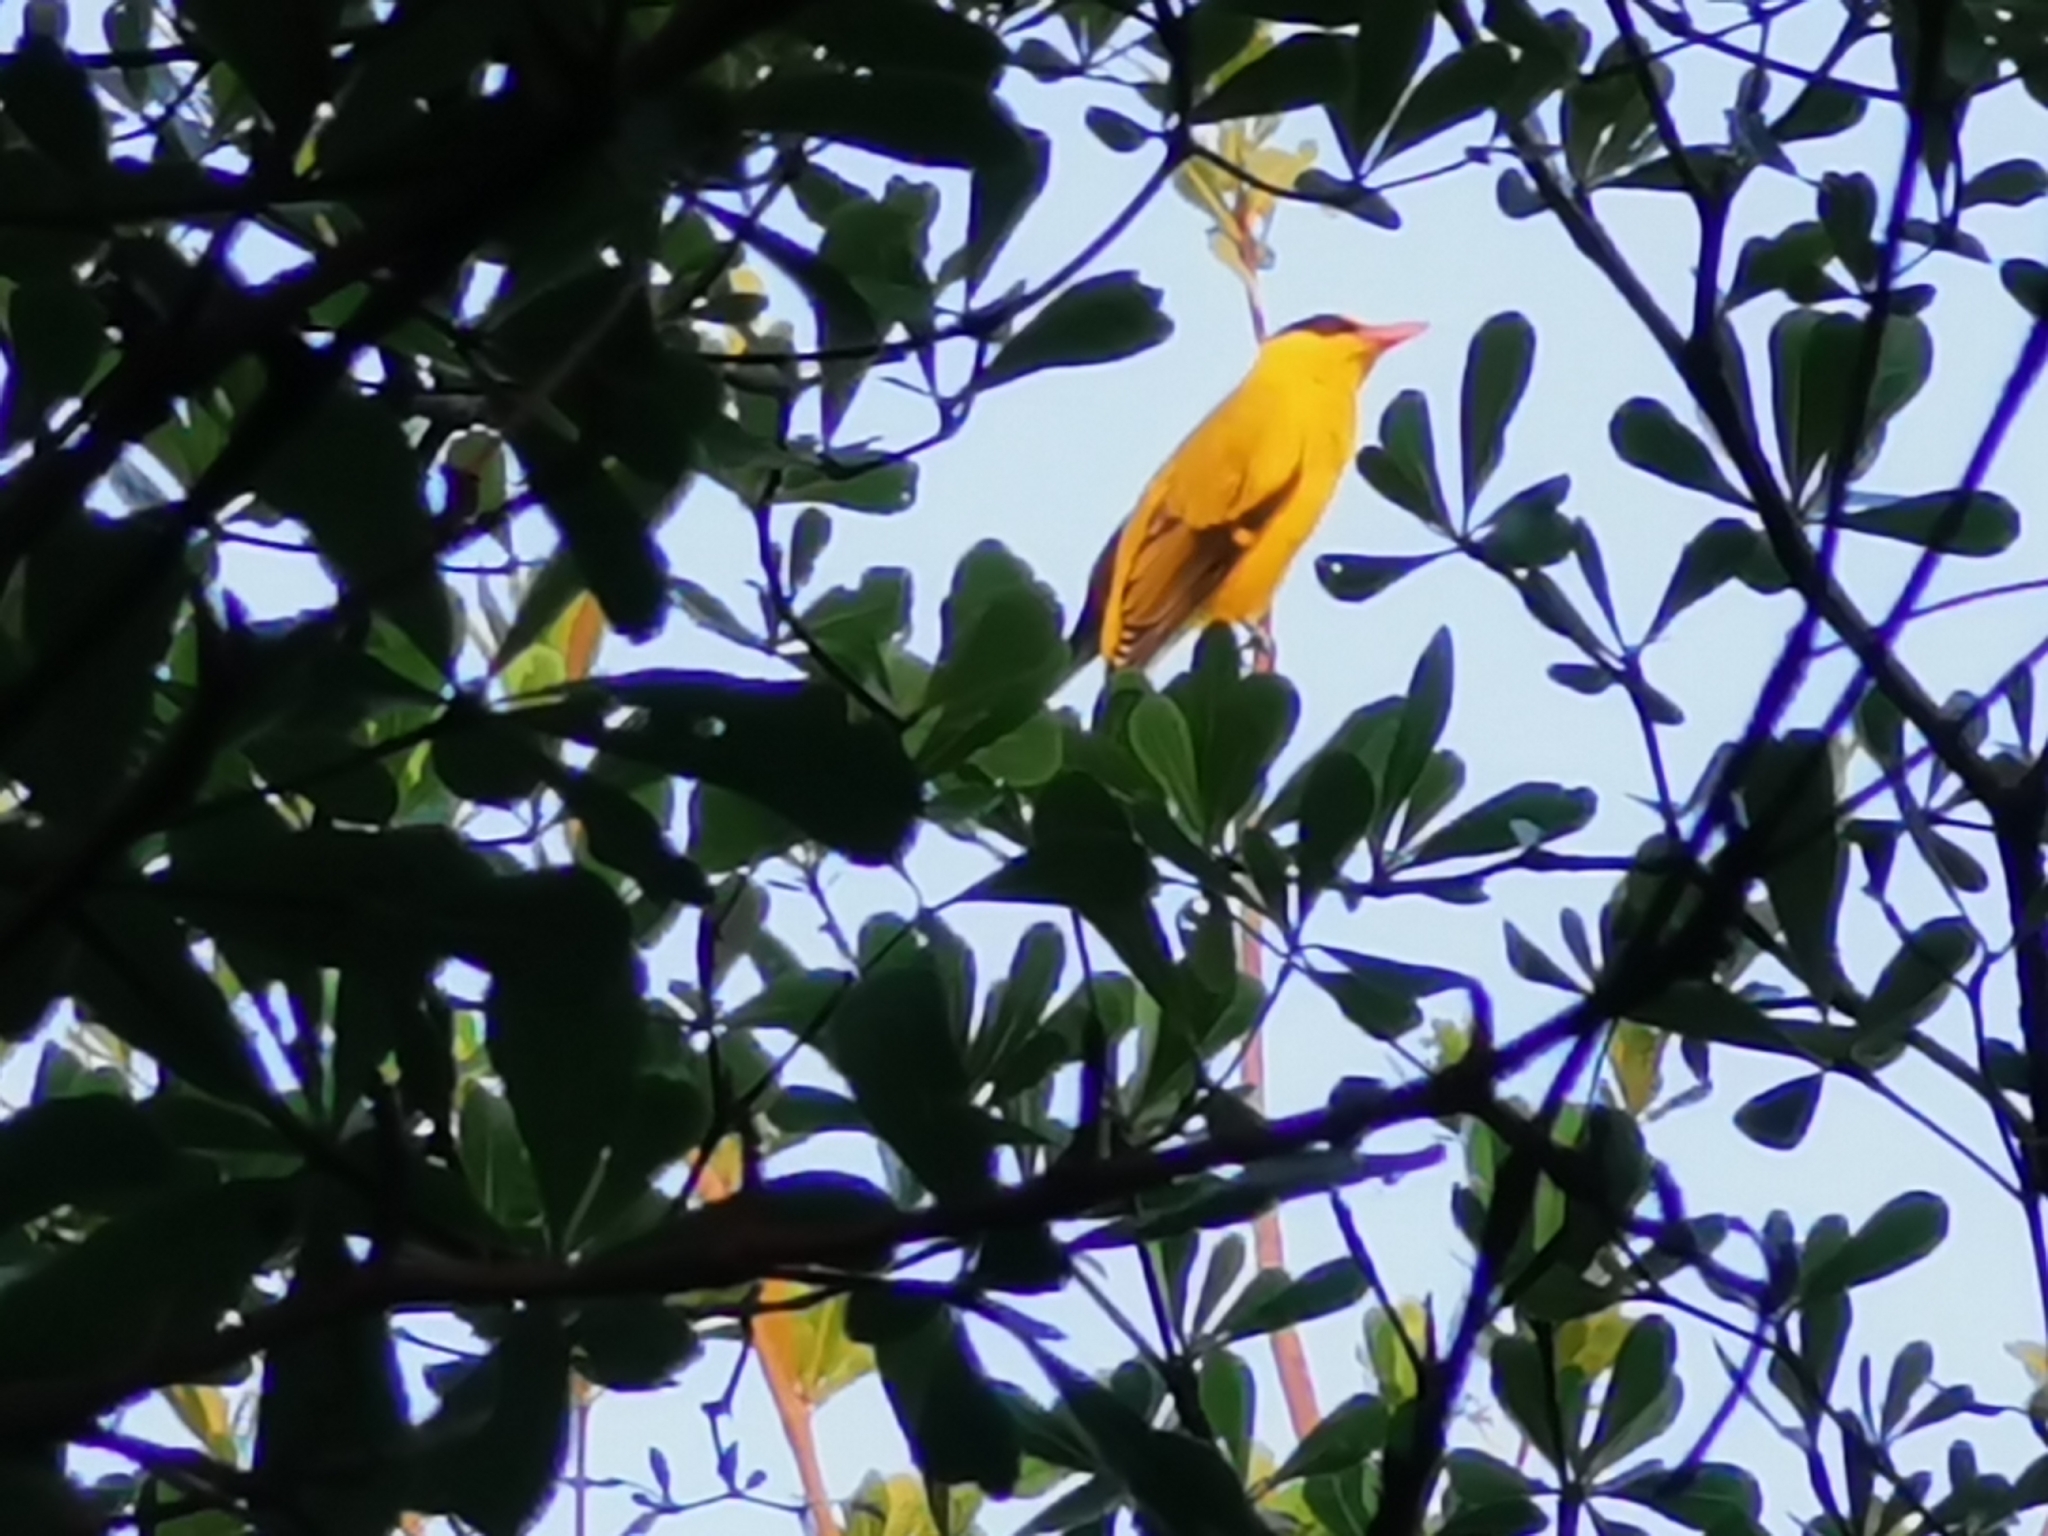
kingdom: Animalia
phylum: Chordata
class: Aves
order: Passeriformes
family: Oriolidae
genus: Oriolus
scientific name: Oriolus chinensis
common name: Black-naped oriole
